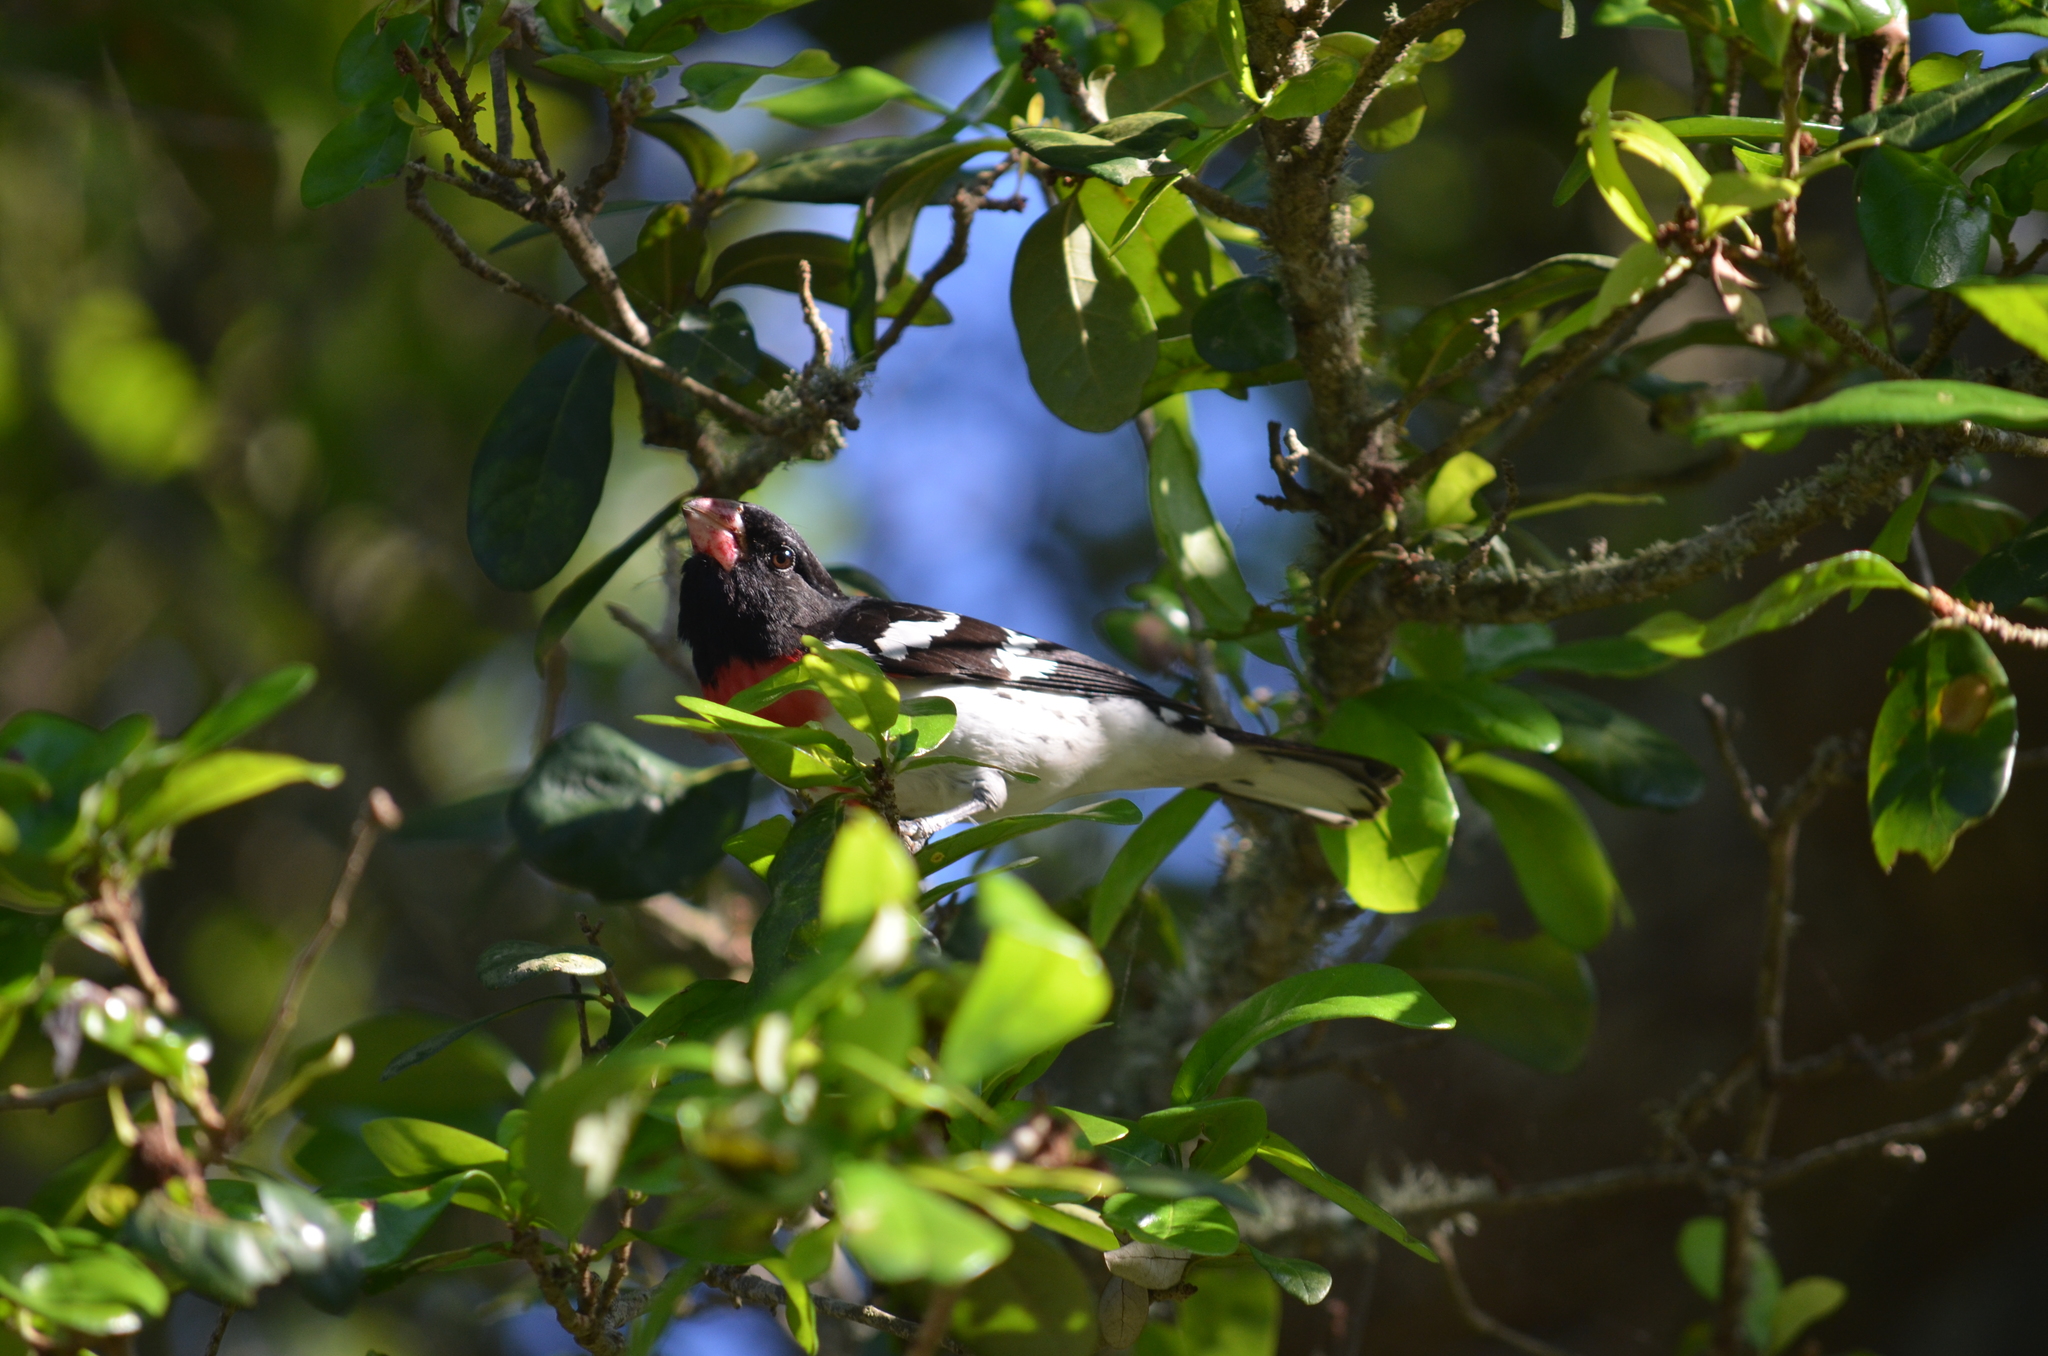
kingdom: Animalia
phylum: Chordata
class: Aves
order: Passeriformes
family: Cardinalidae
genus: Pheucticus
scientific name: Pheucticus ludovicianus
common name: Rose-breasted grosbeak
